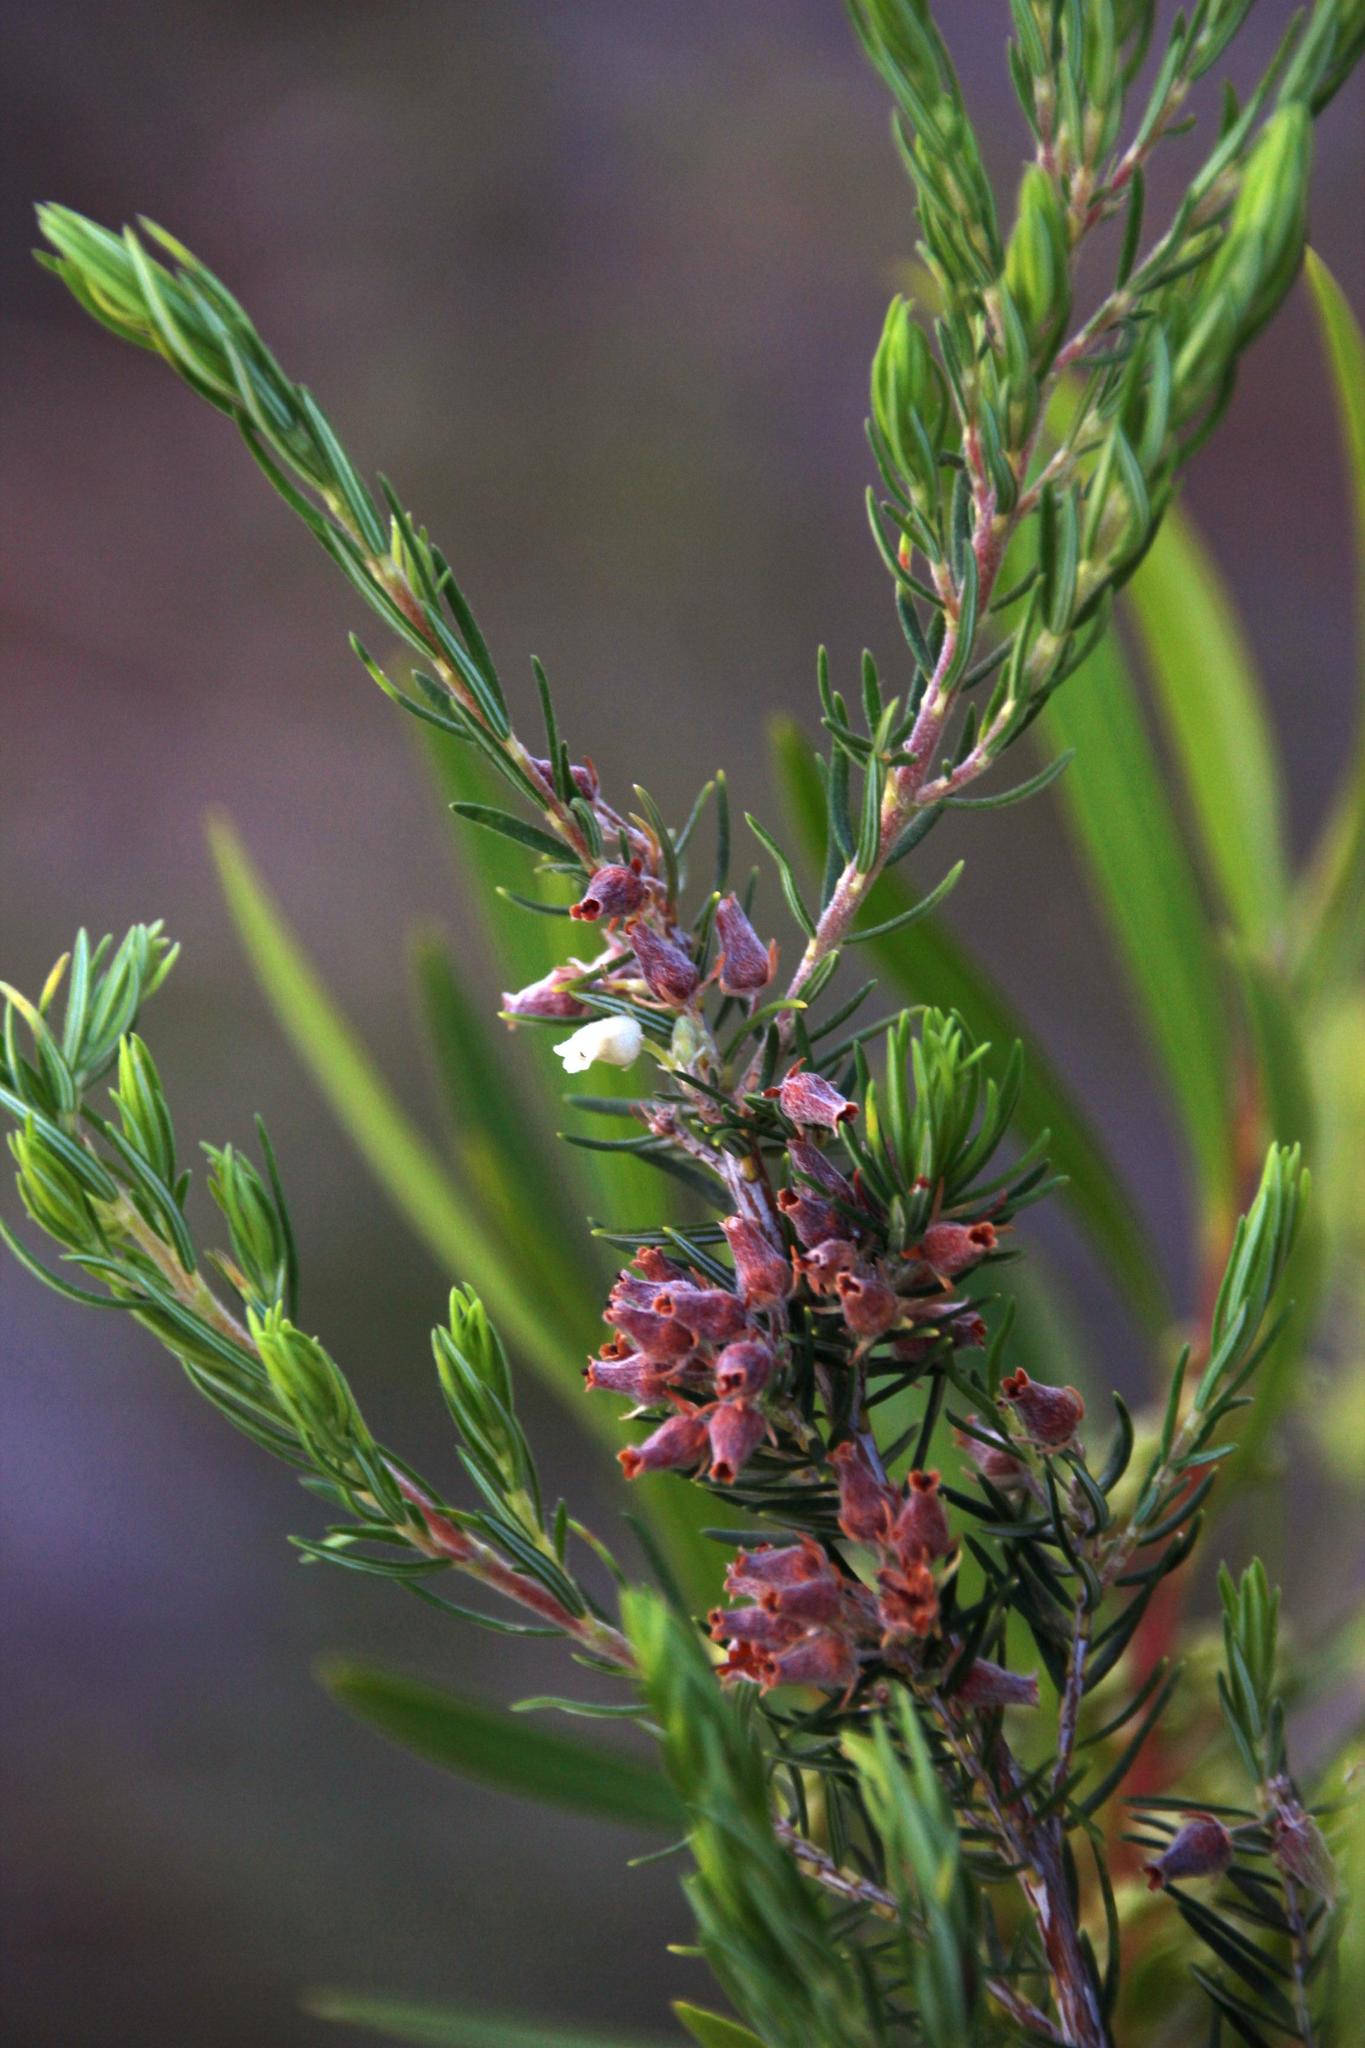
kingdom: Plantae
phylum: Tracheophyta
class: Magnoliopsida
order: Ericales
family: Ericaceae
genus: Erica
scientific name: Erica caffra
